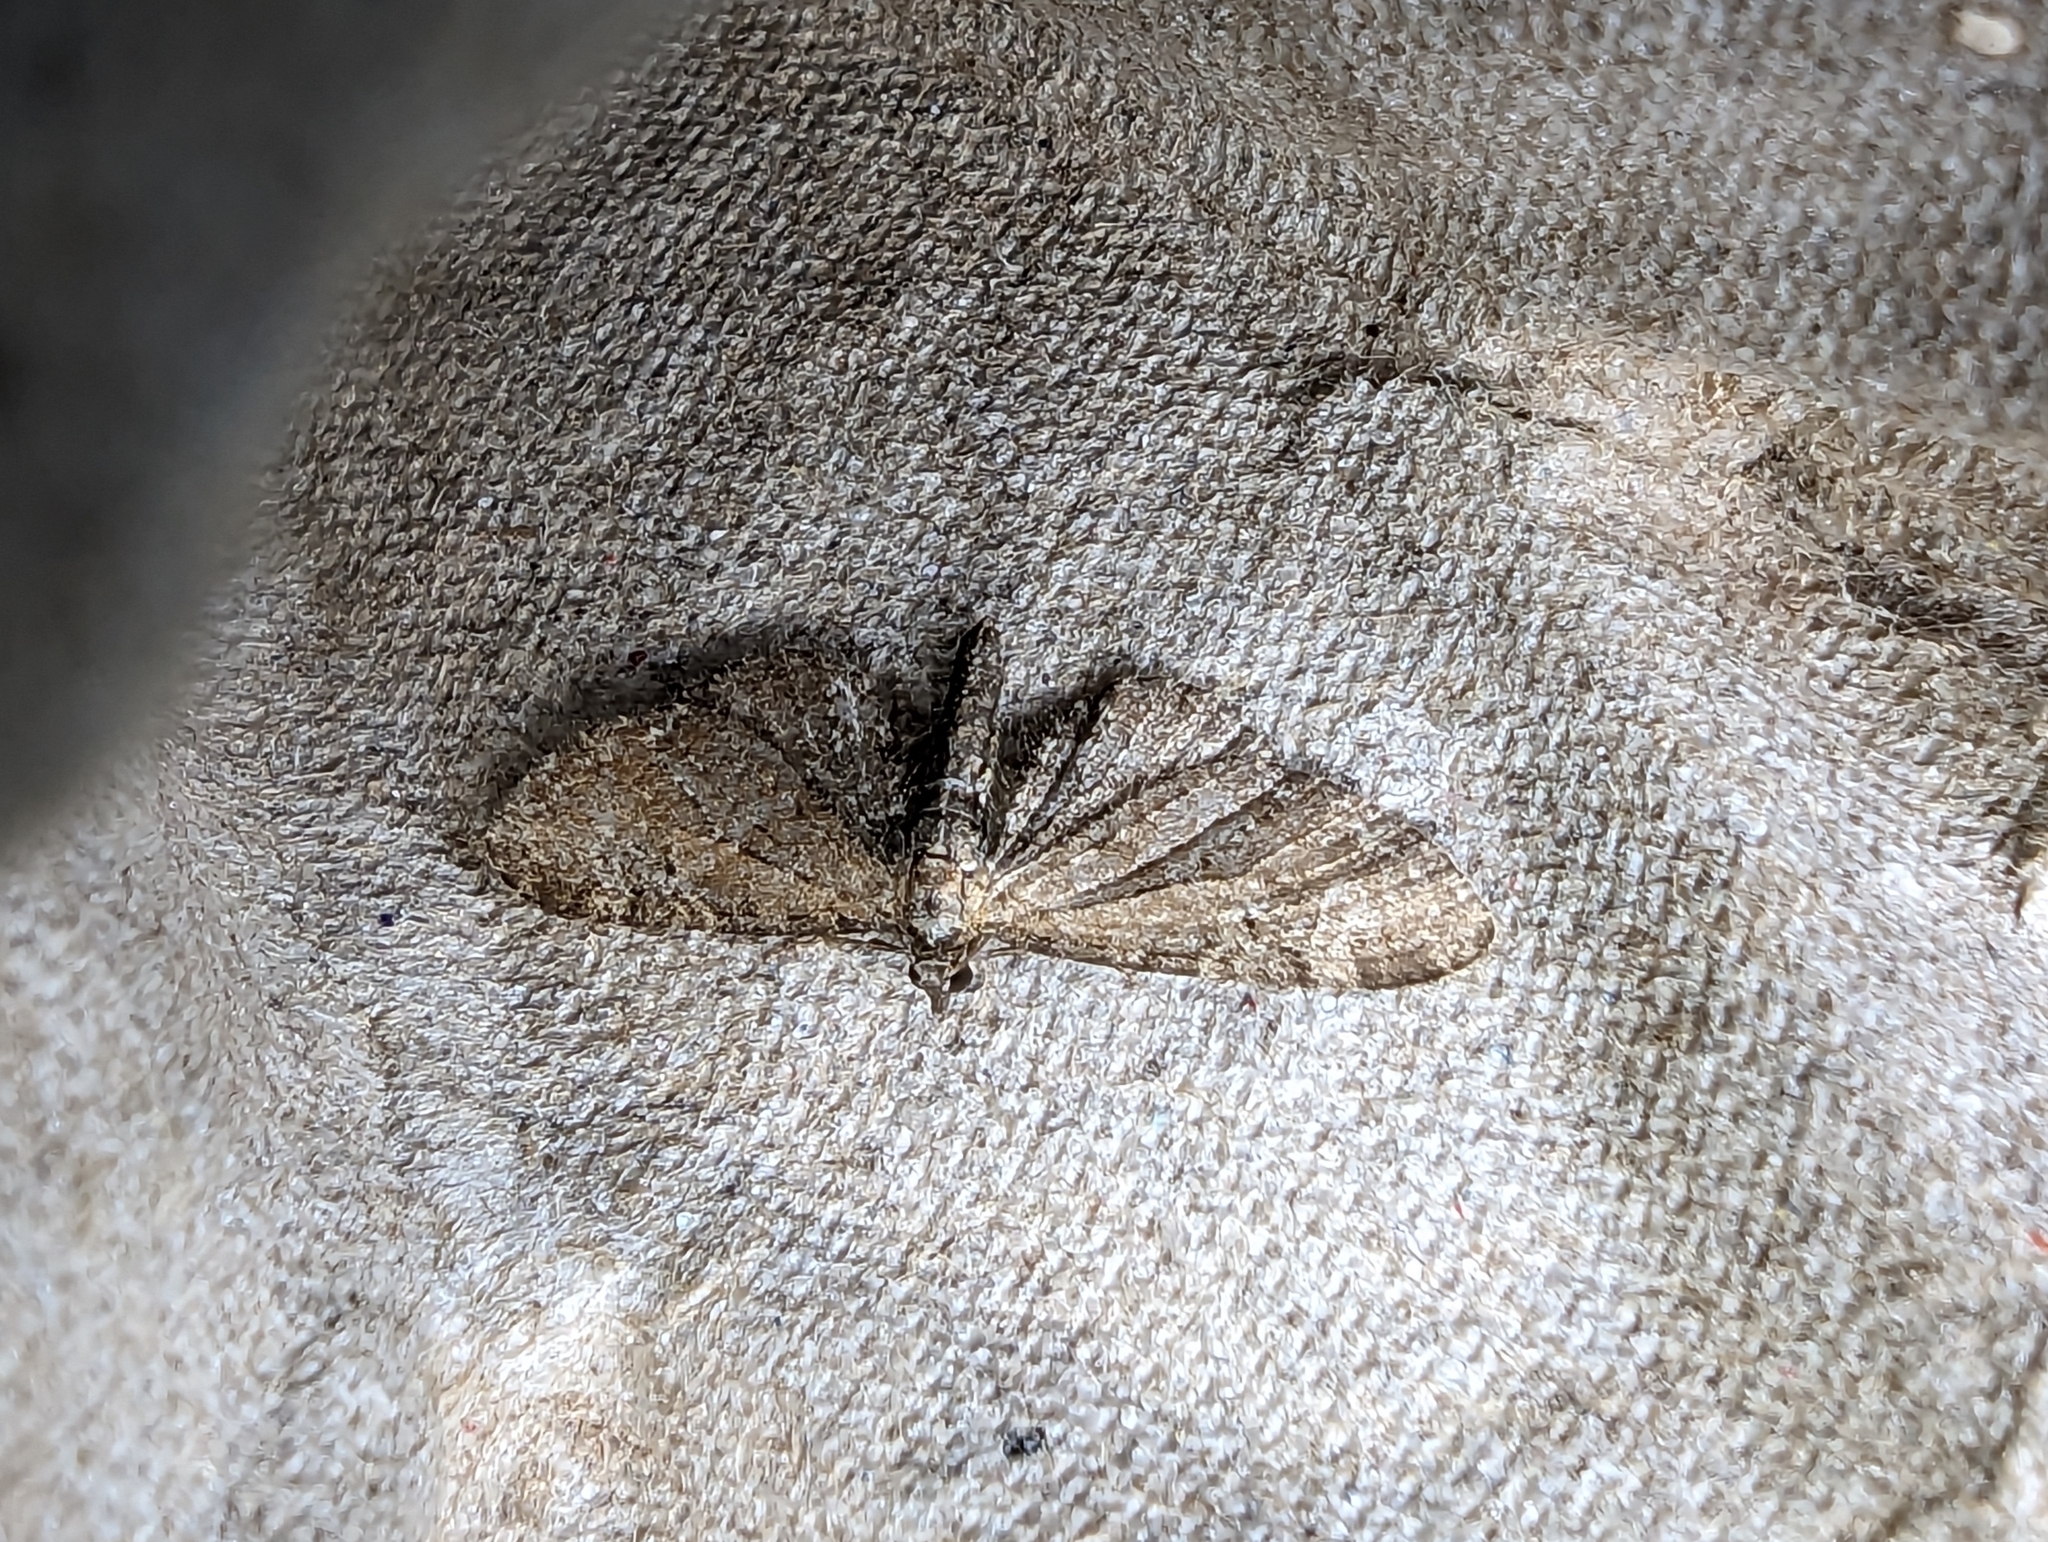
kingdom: Animalia
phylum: Arthropoda
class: Insecta
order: Lepidoptera
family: Geometridae
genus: Eupithecia
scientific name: Eupithecia vulgata
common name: Common pug
